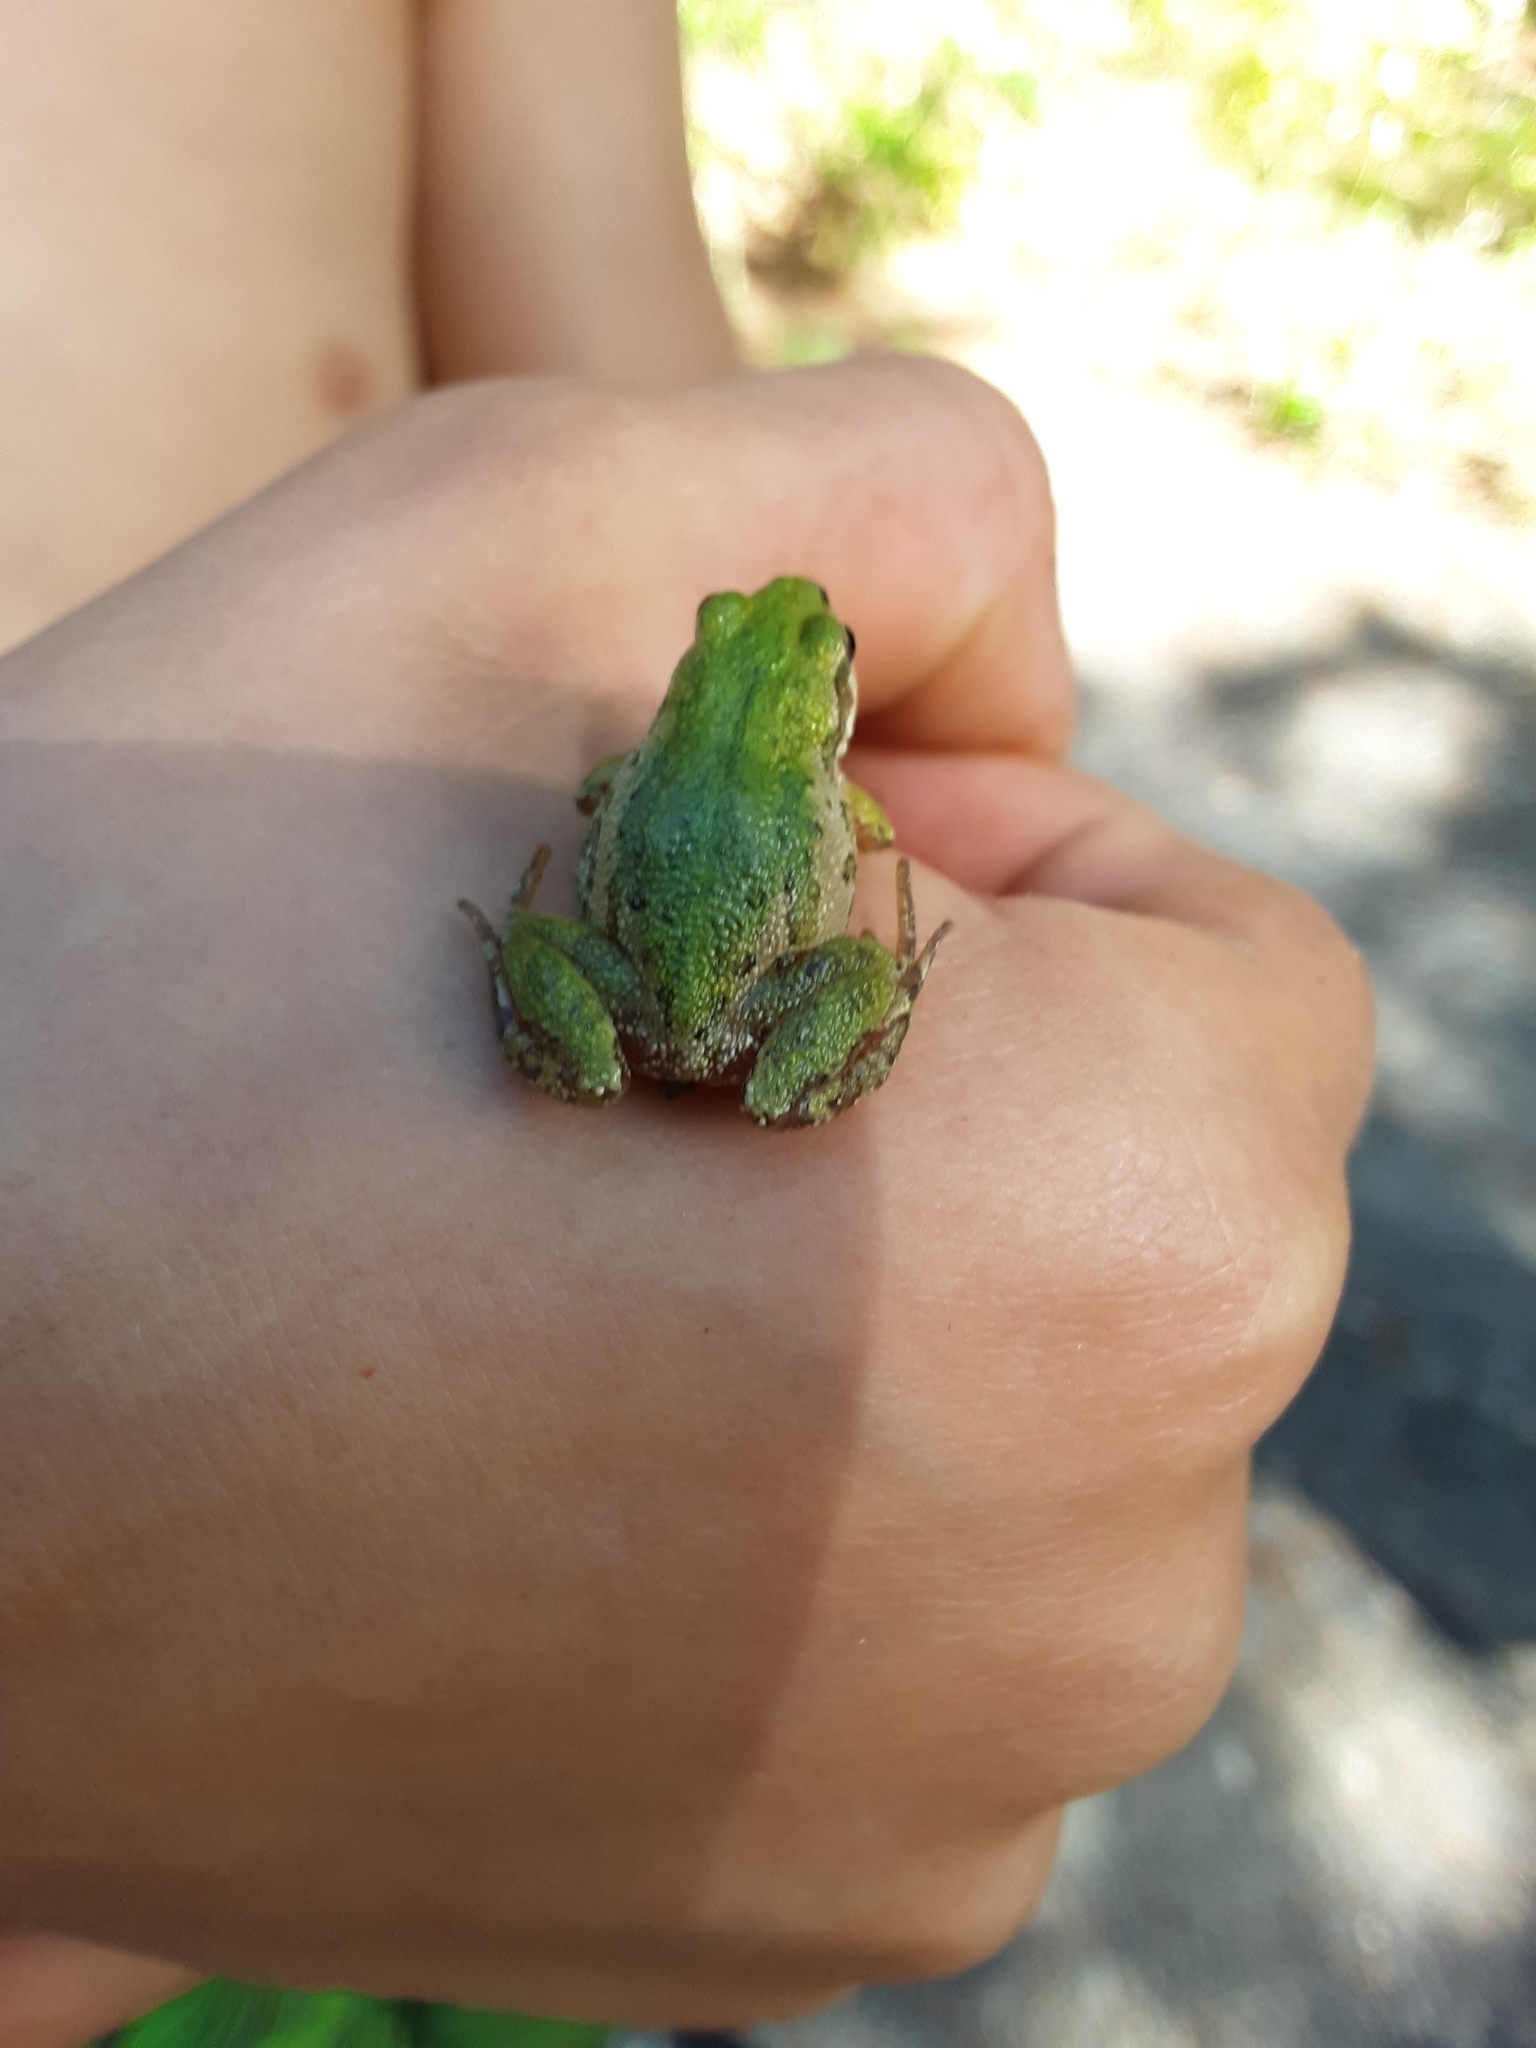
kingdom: Animalia
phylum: Chordata
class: Amphibia
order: Anura
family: Hylidae
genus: Pseudacris
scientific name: Pseudacris maculata
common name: Boreal chorus frog
